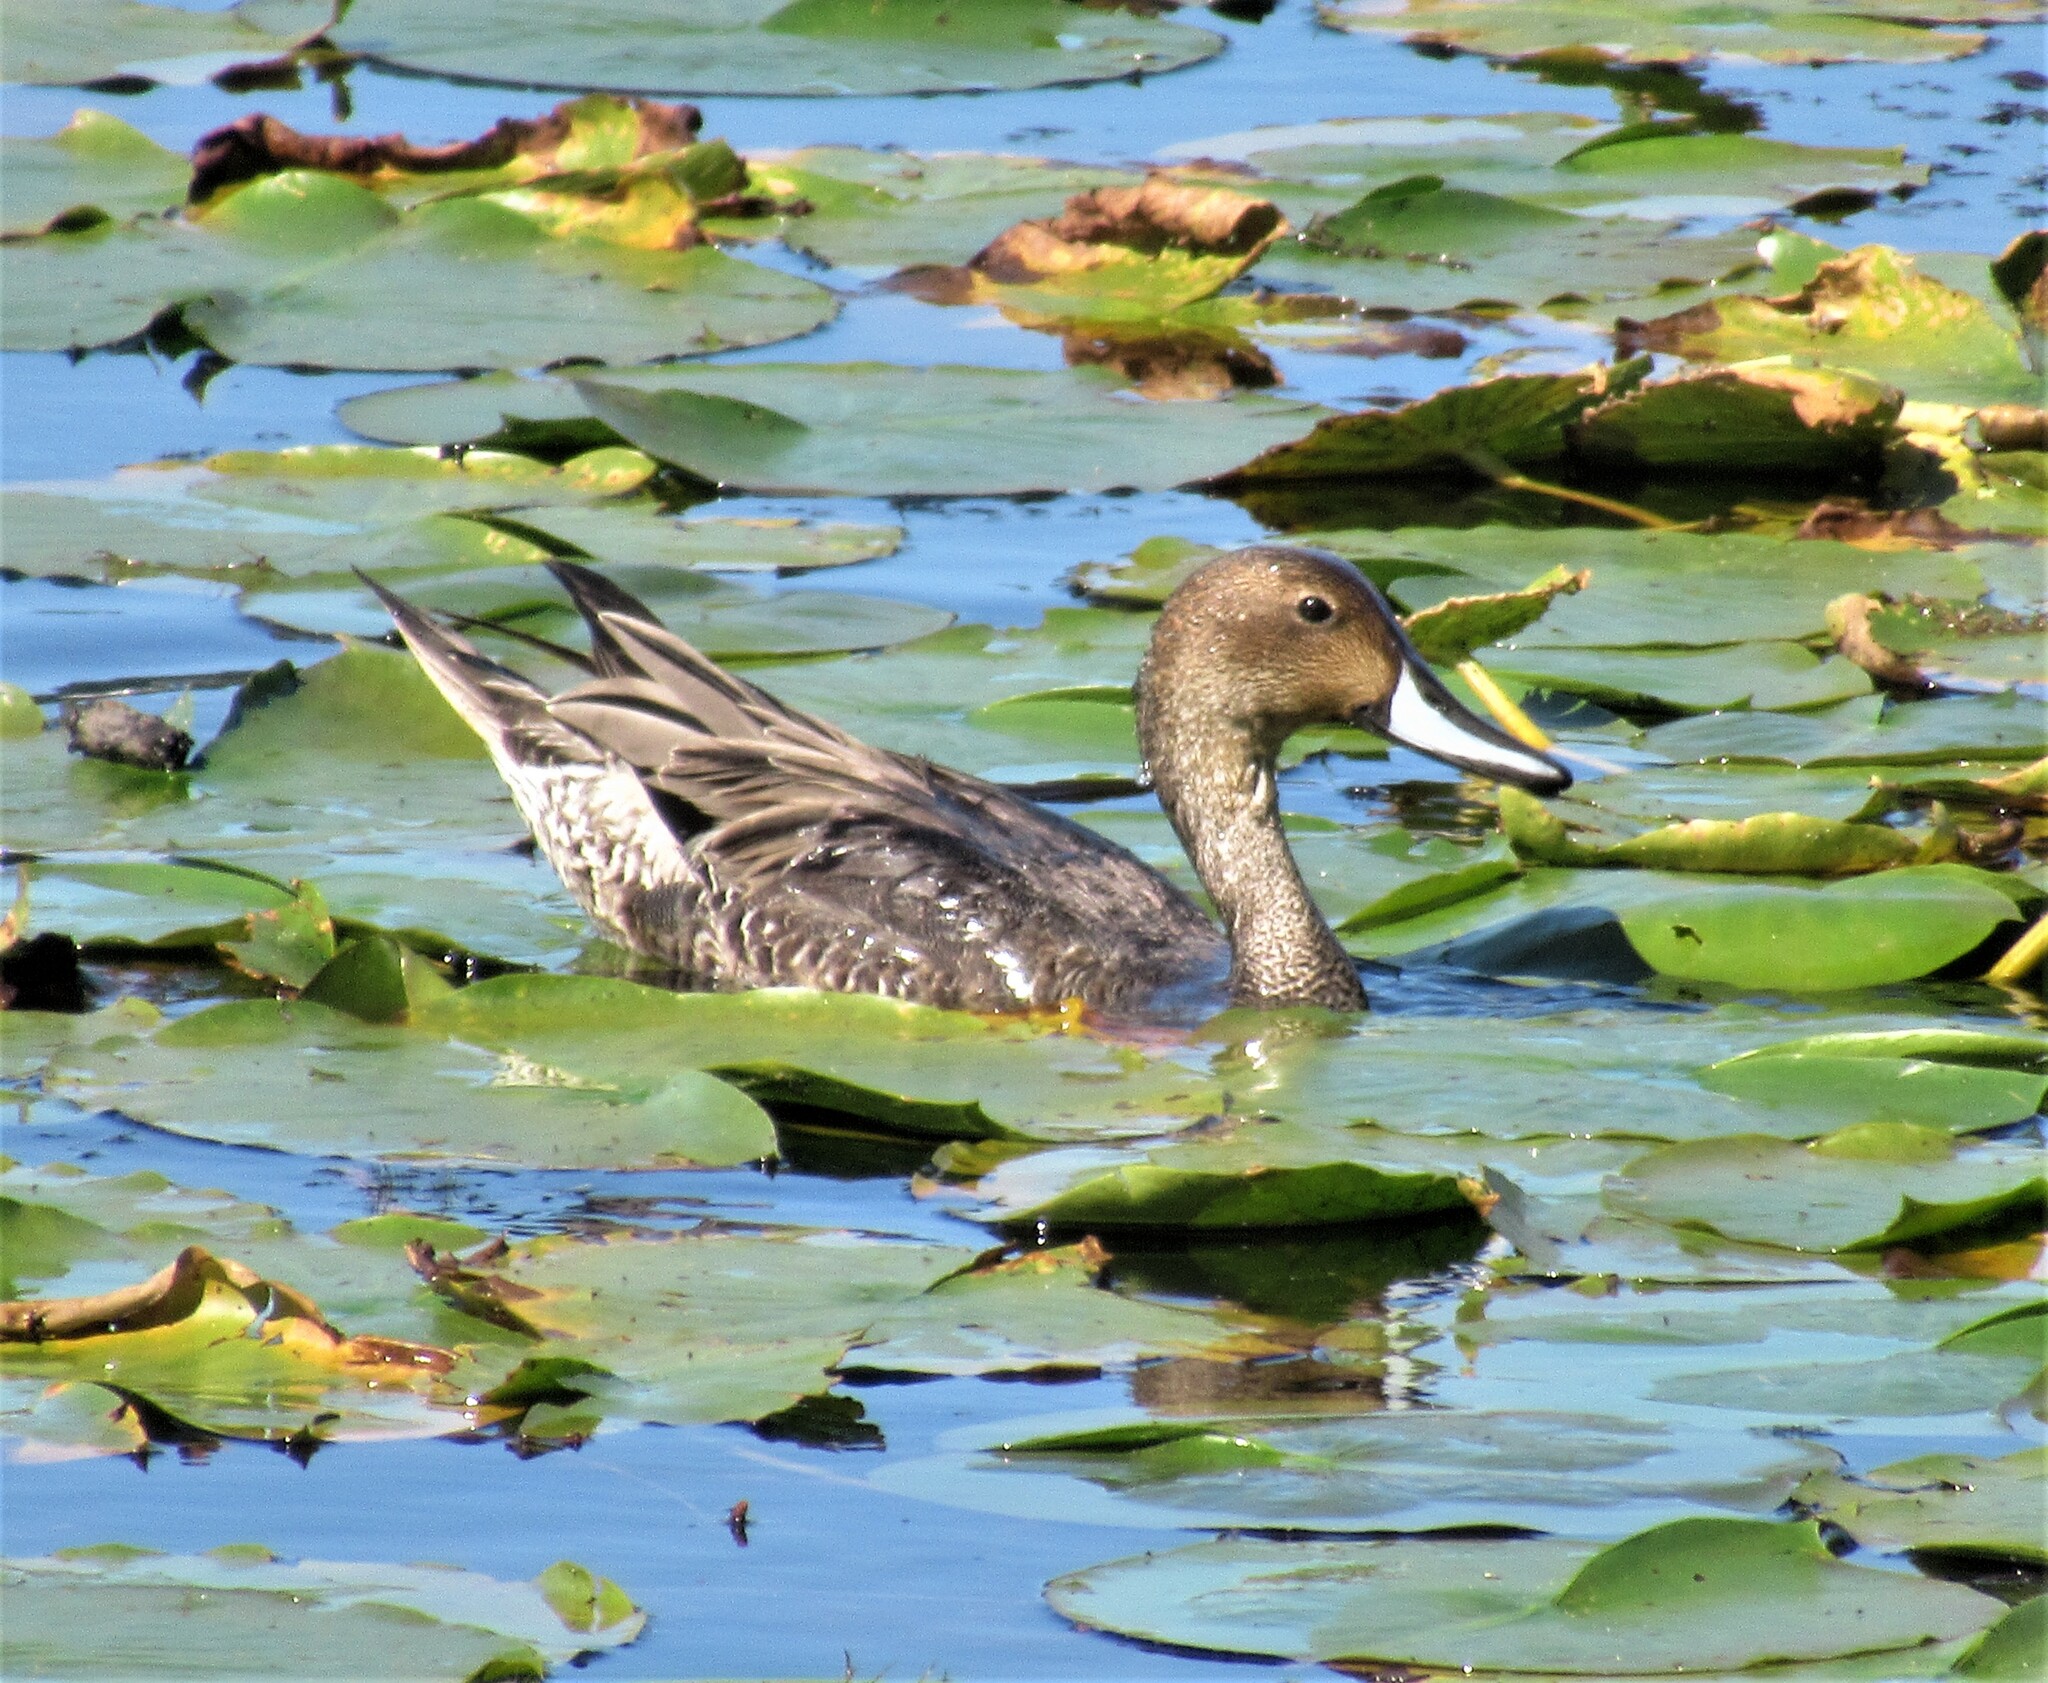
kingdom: Animalia
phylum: Chordata
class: Aves
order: Anseriformes
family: Anatidae
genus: Anas
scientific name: Anas acuta
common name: Northern pintail
